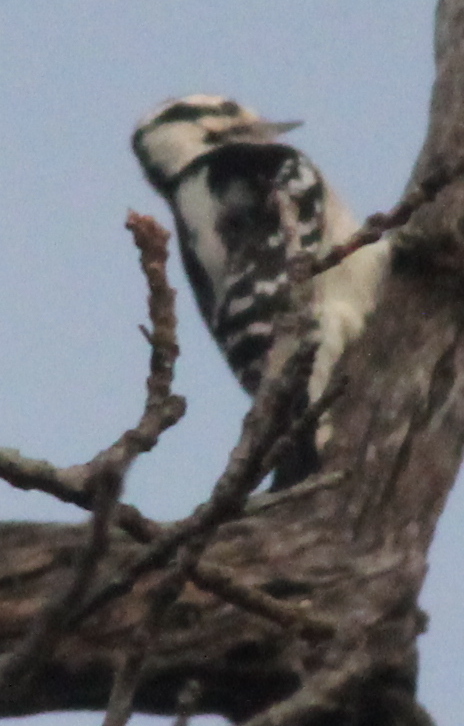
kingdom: Animalia
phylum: Chordata
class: Aves
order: Piciformes
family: Picidae
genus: Dryobates
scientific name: Dryobates pubescens
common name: Downy woodpecker
